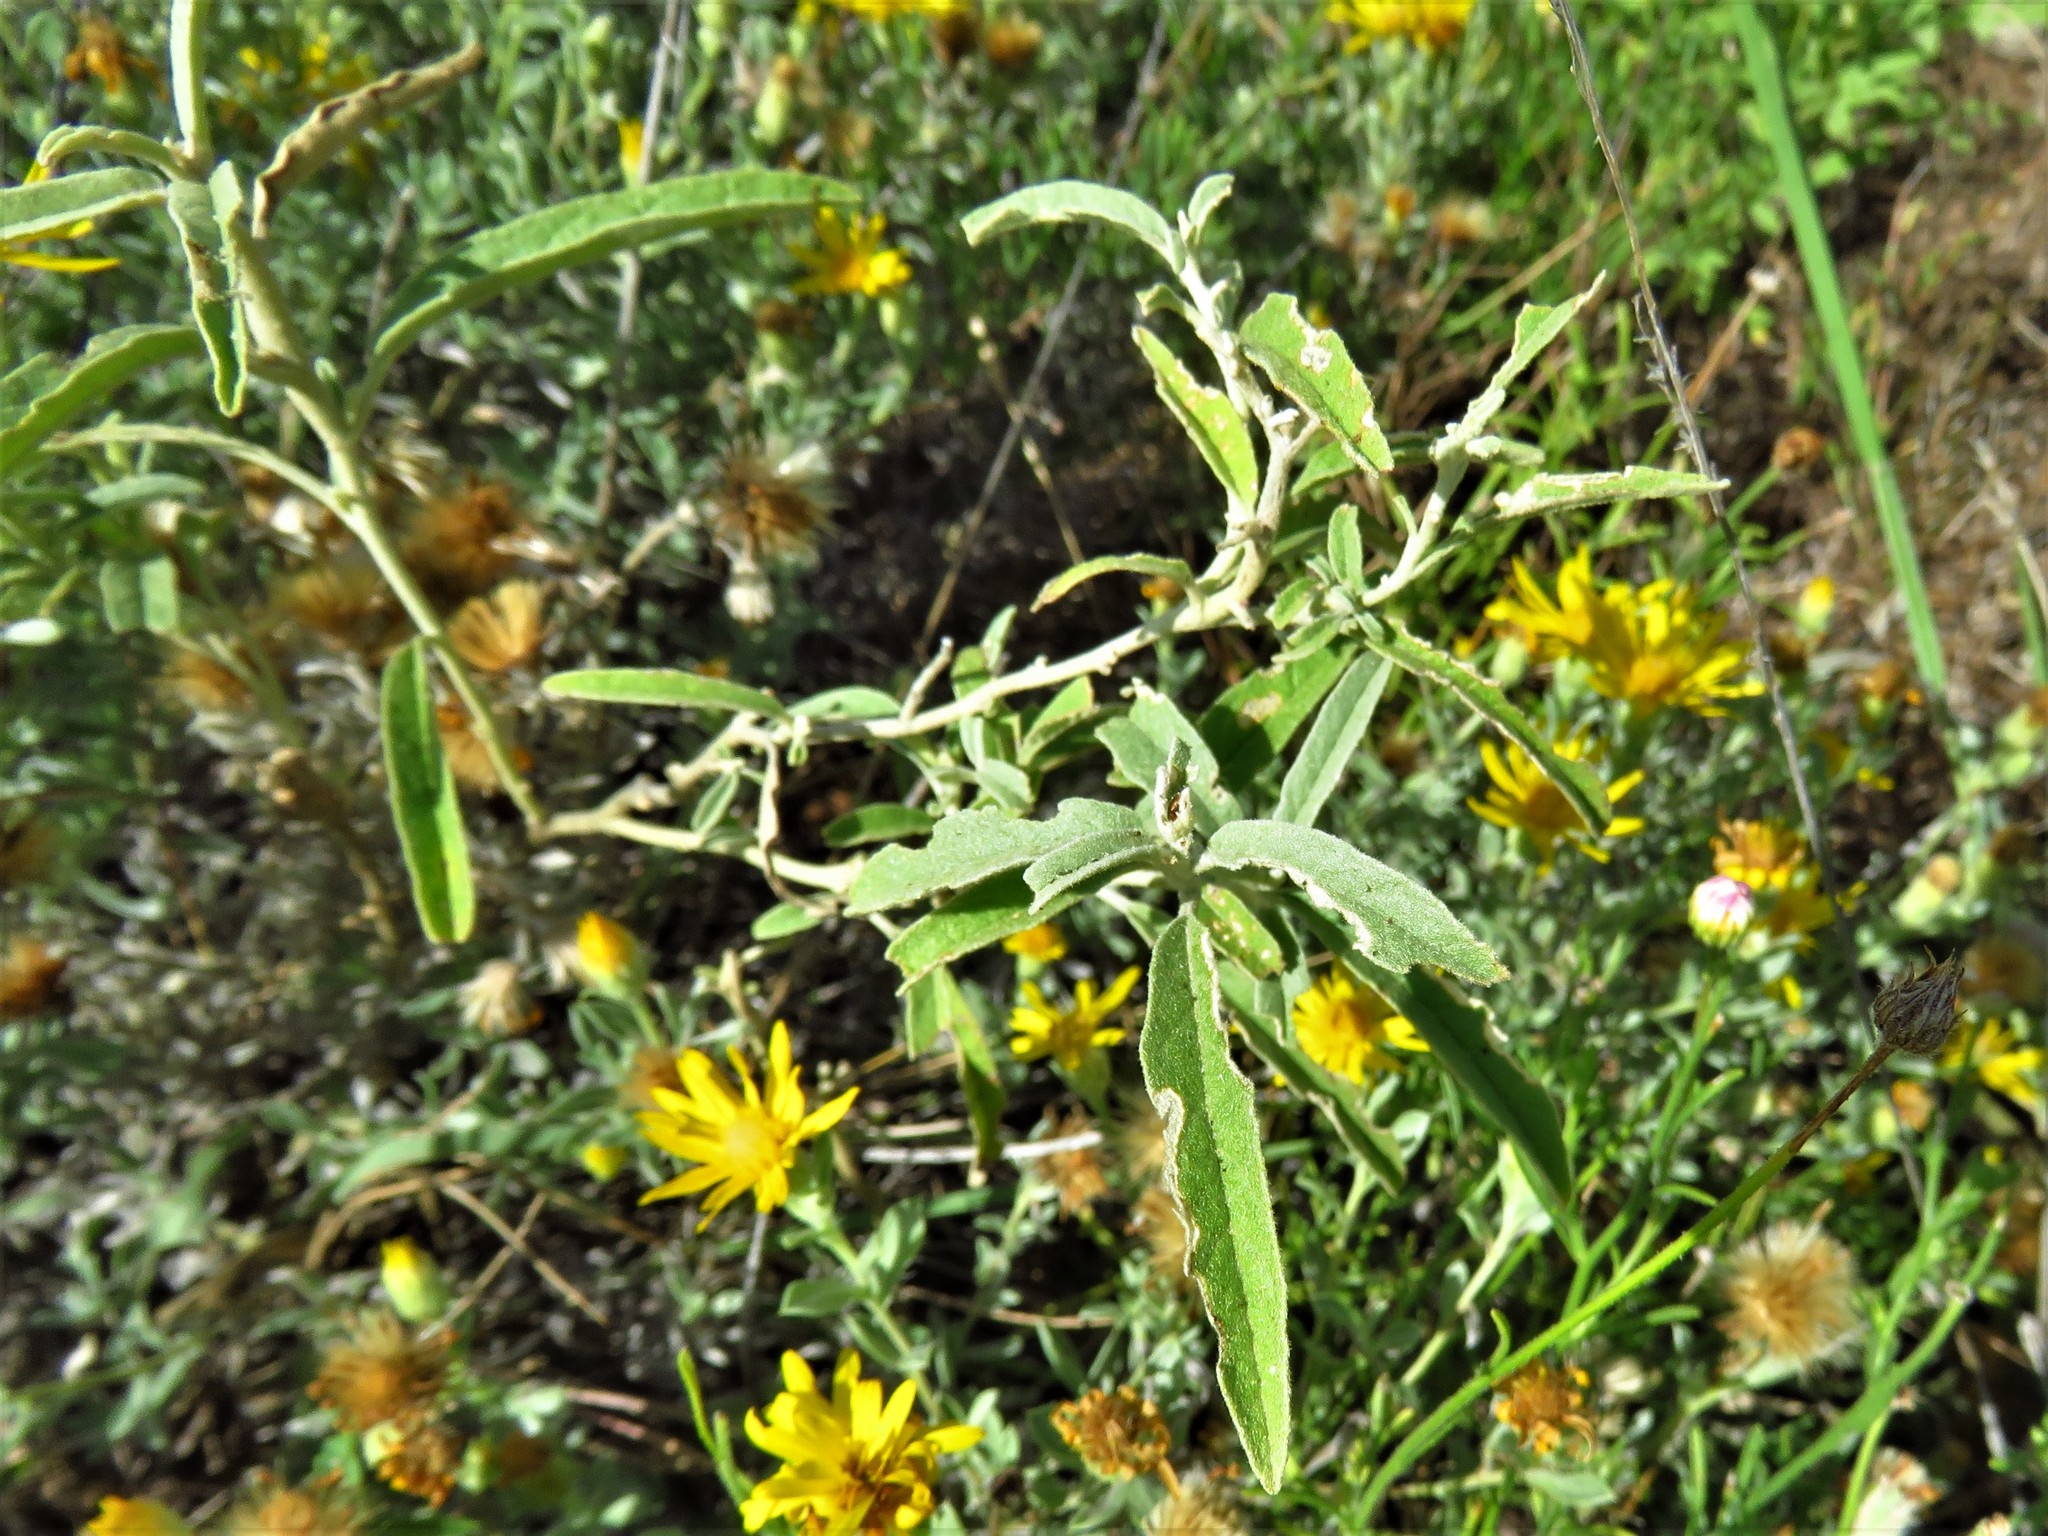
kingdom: Plantae
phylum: Tracheophyta
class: Magnoliopsida
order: Solanales
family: Solanaceae
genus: Solanum
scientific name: Solanum elaeagnifolium
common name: Silverleaf nightshade
